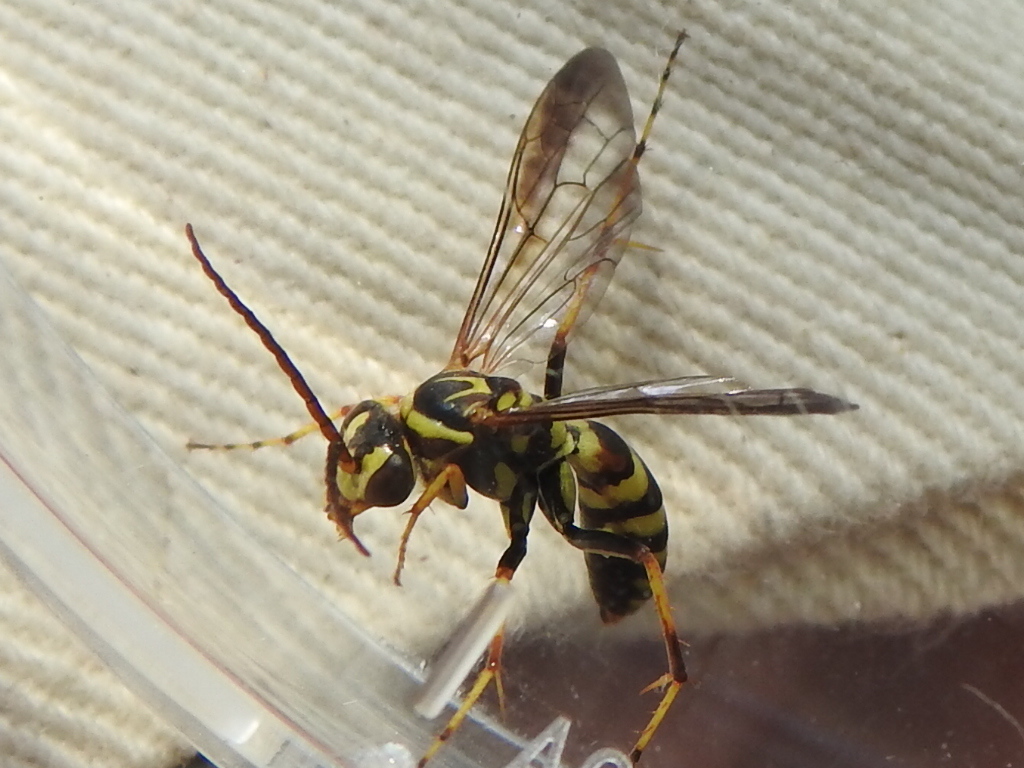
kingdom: Animalia
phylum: Arthropoda
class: Insecta
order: Hymenoptera
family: Pompilidae
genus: Poecilopompilus
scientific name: Poecilopompilus interruptus
